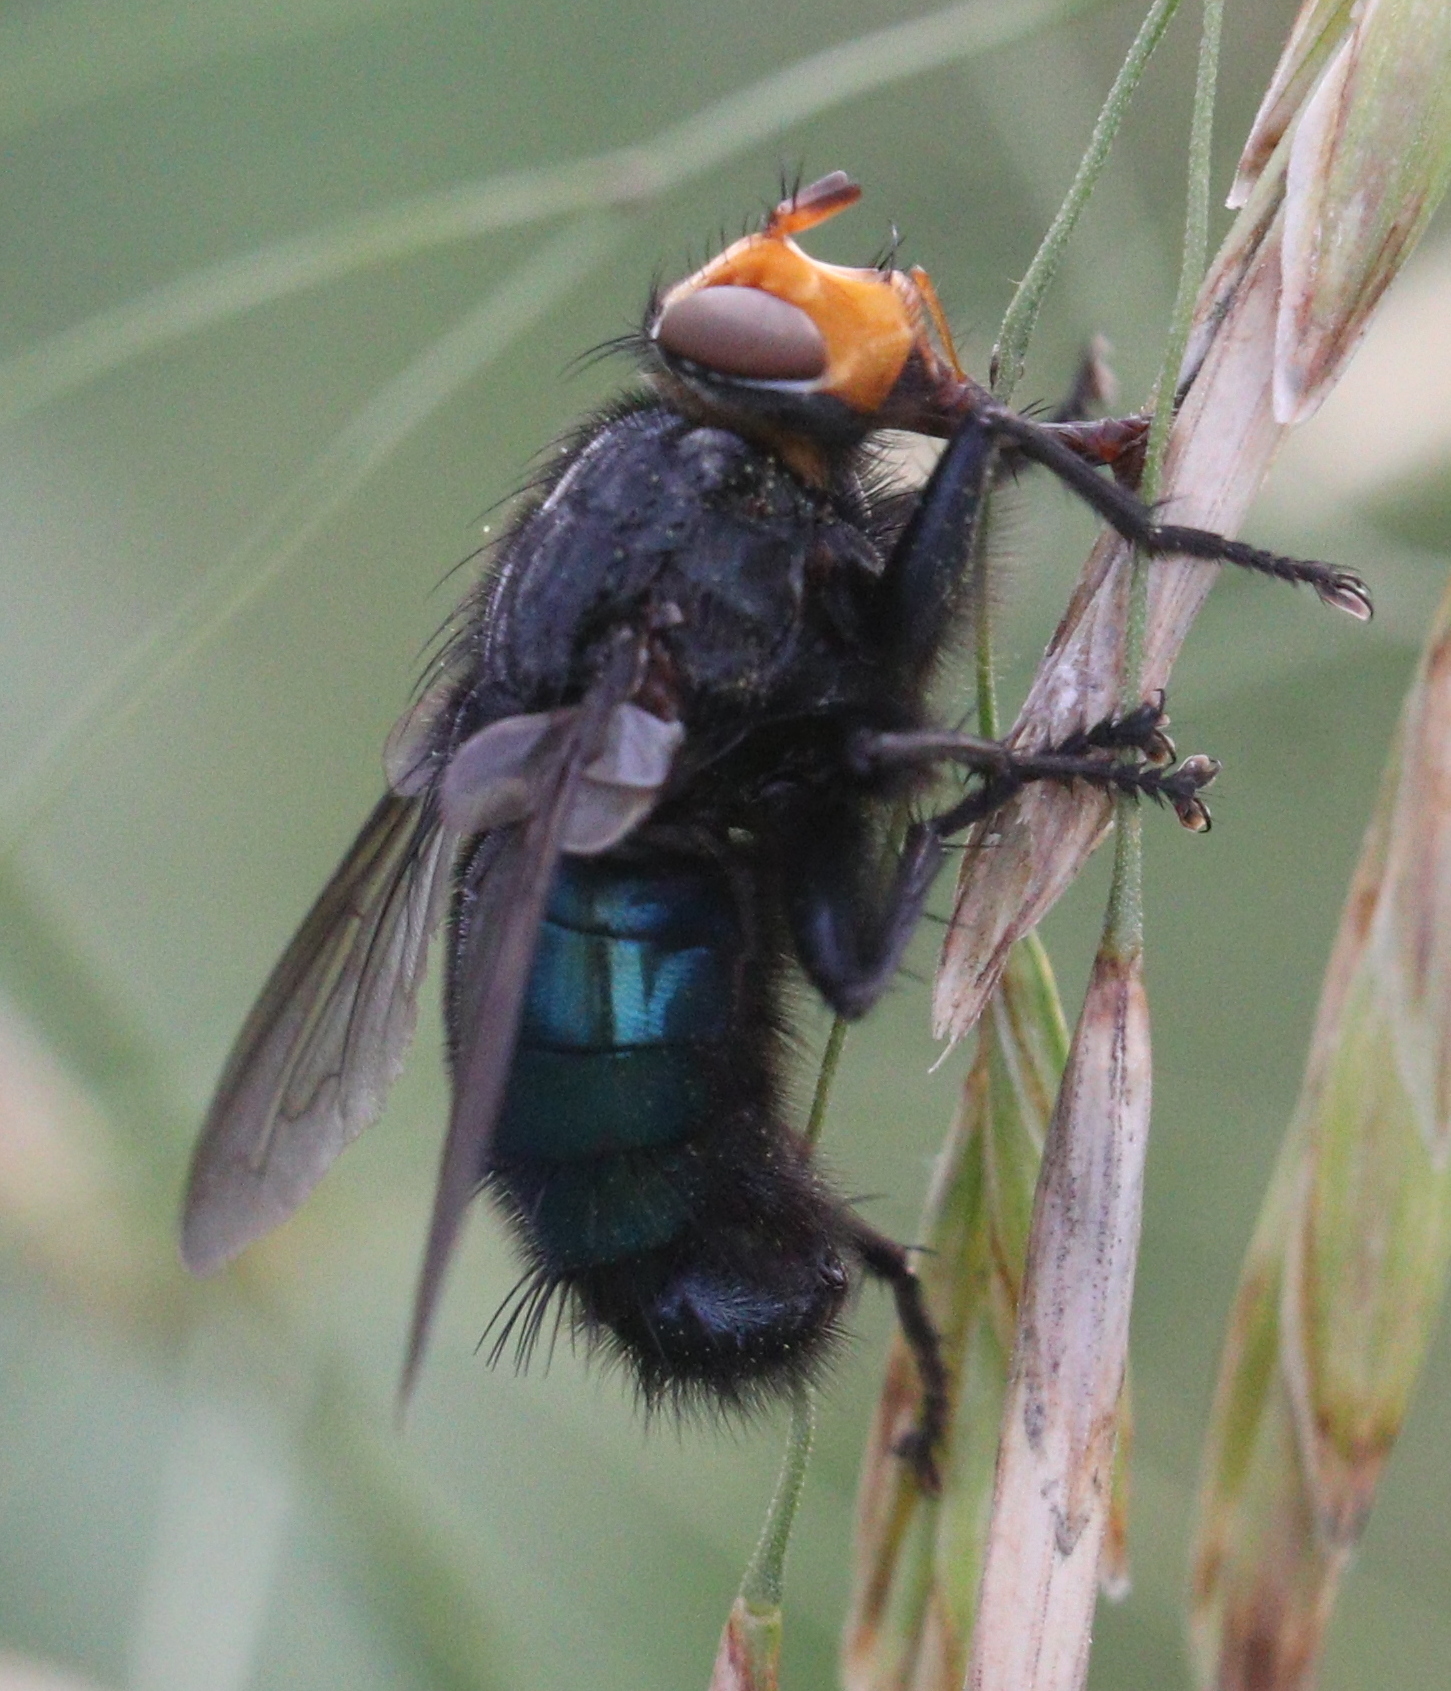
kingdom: Animalia
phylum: Arthropoda
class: Insecta
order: Diptera
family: Calliphoridae
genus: Cynomya
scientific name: Cynomya mortuorum
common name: Bluebottle blow fly
